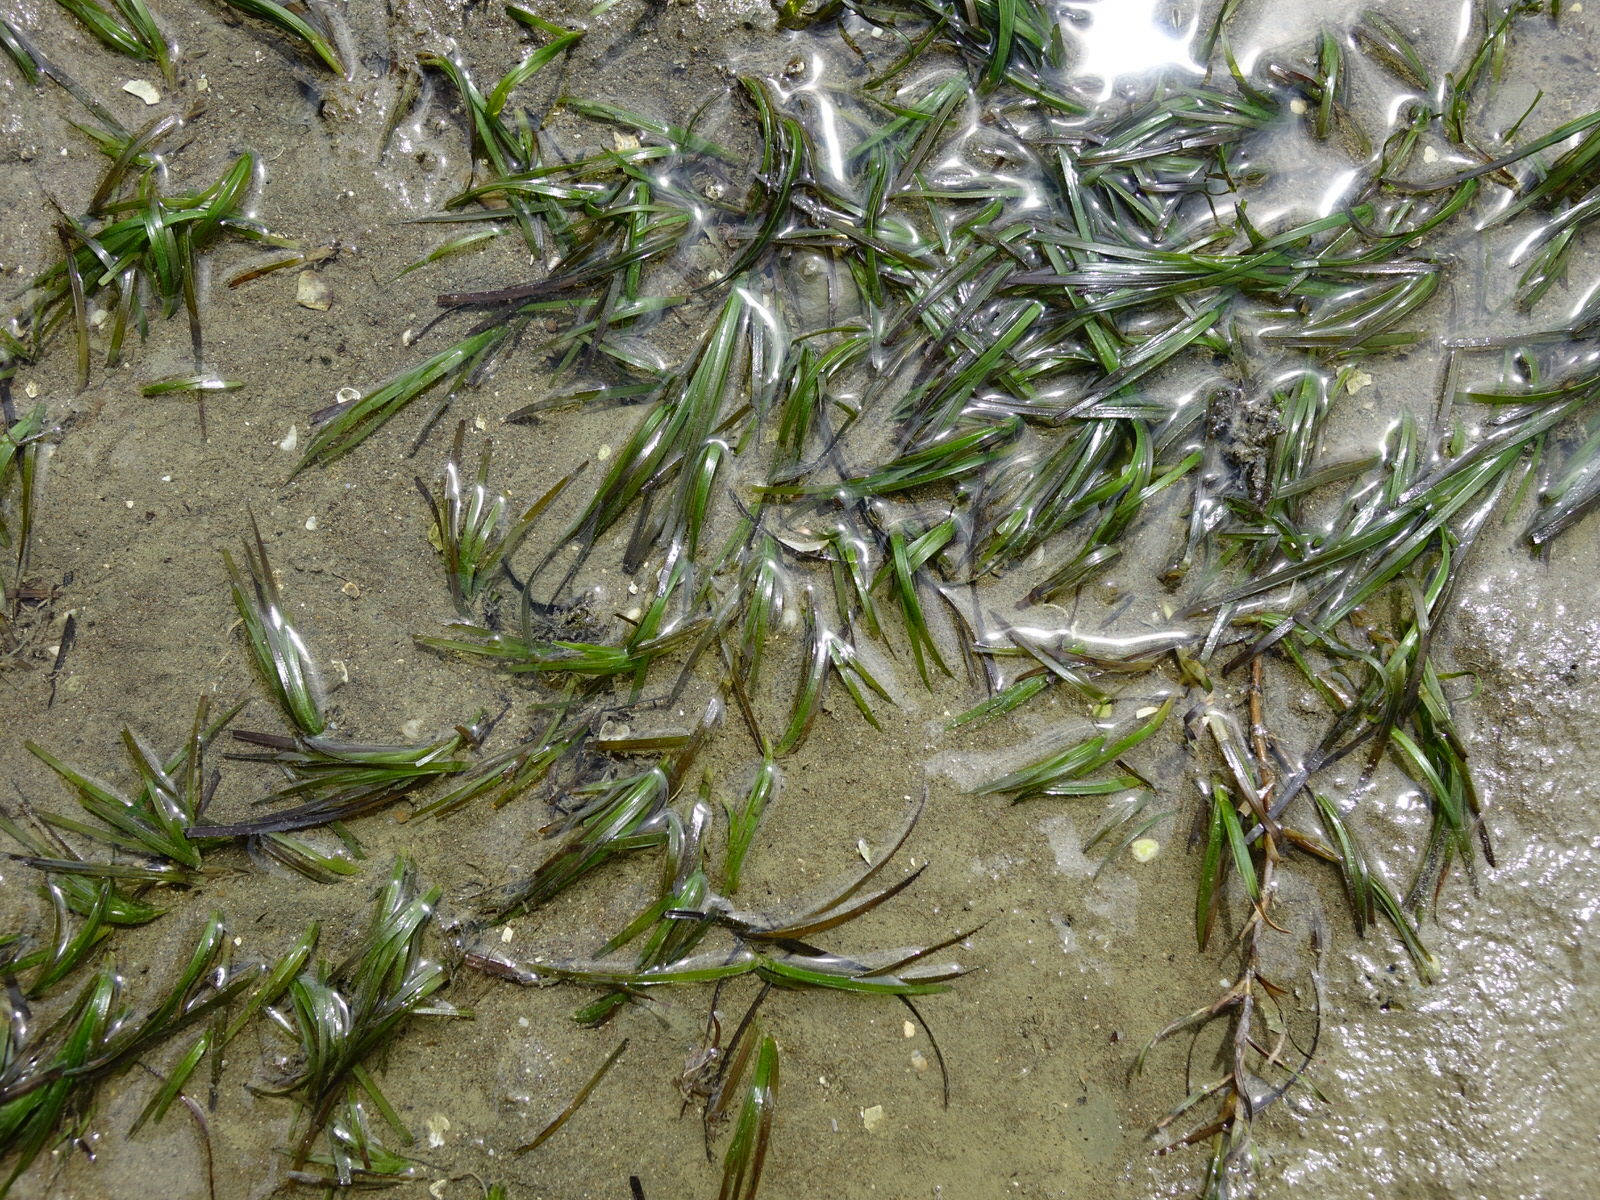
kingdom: Plantae
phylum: Tracheophyta
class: Liliopsida
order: Alismatales
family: Zosteraceae
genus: Zostera
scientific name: Zostera novazelandica
